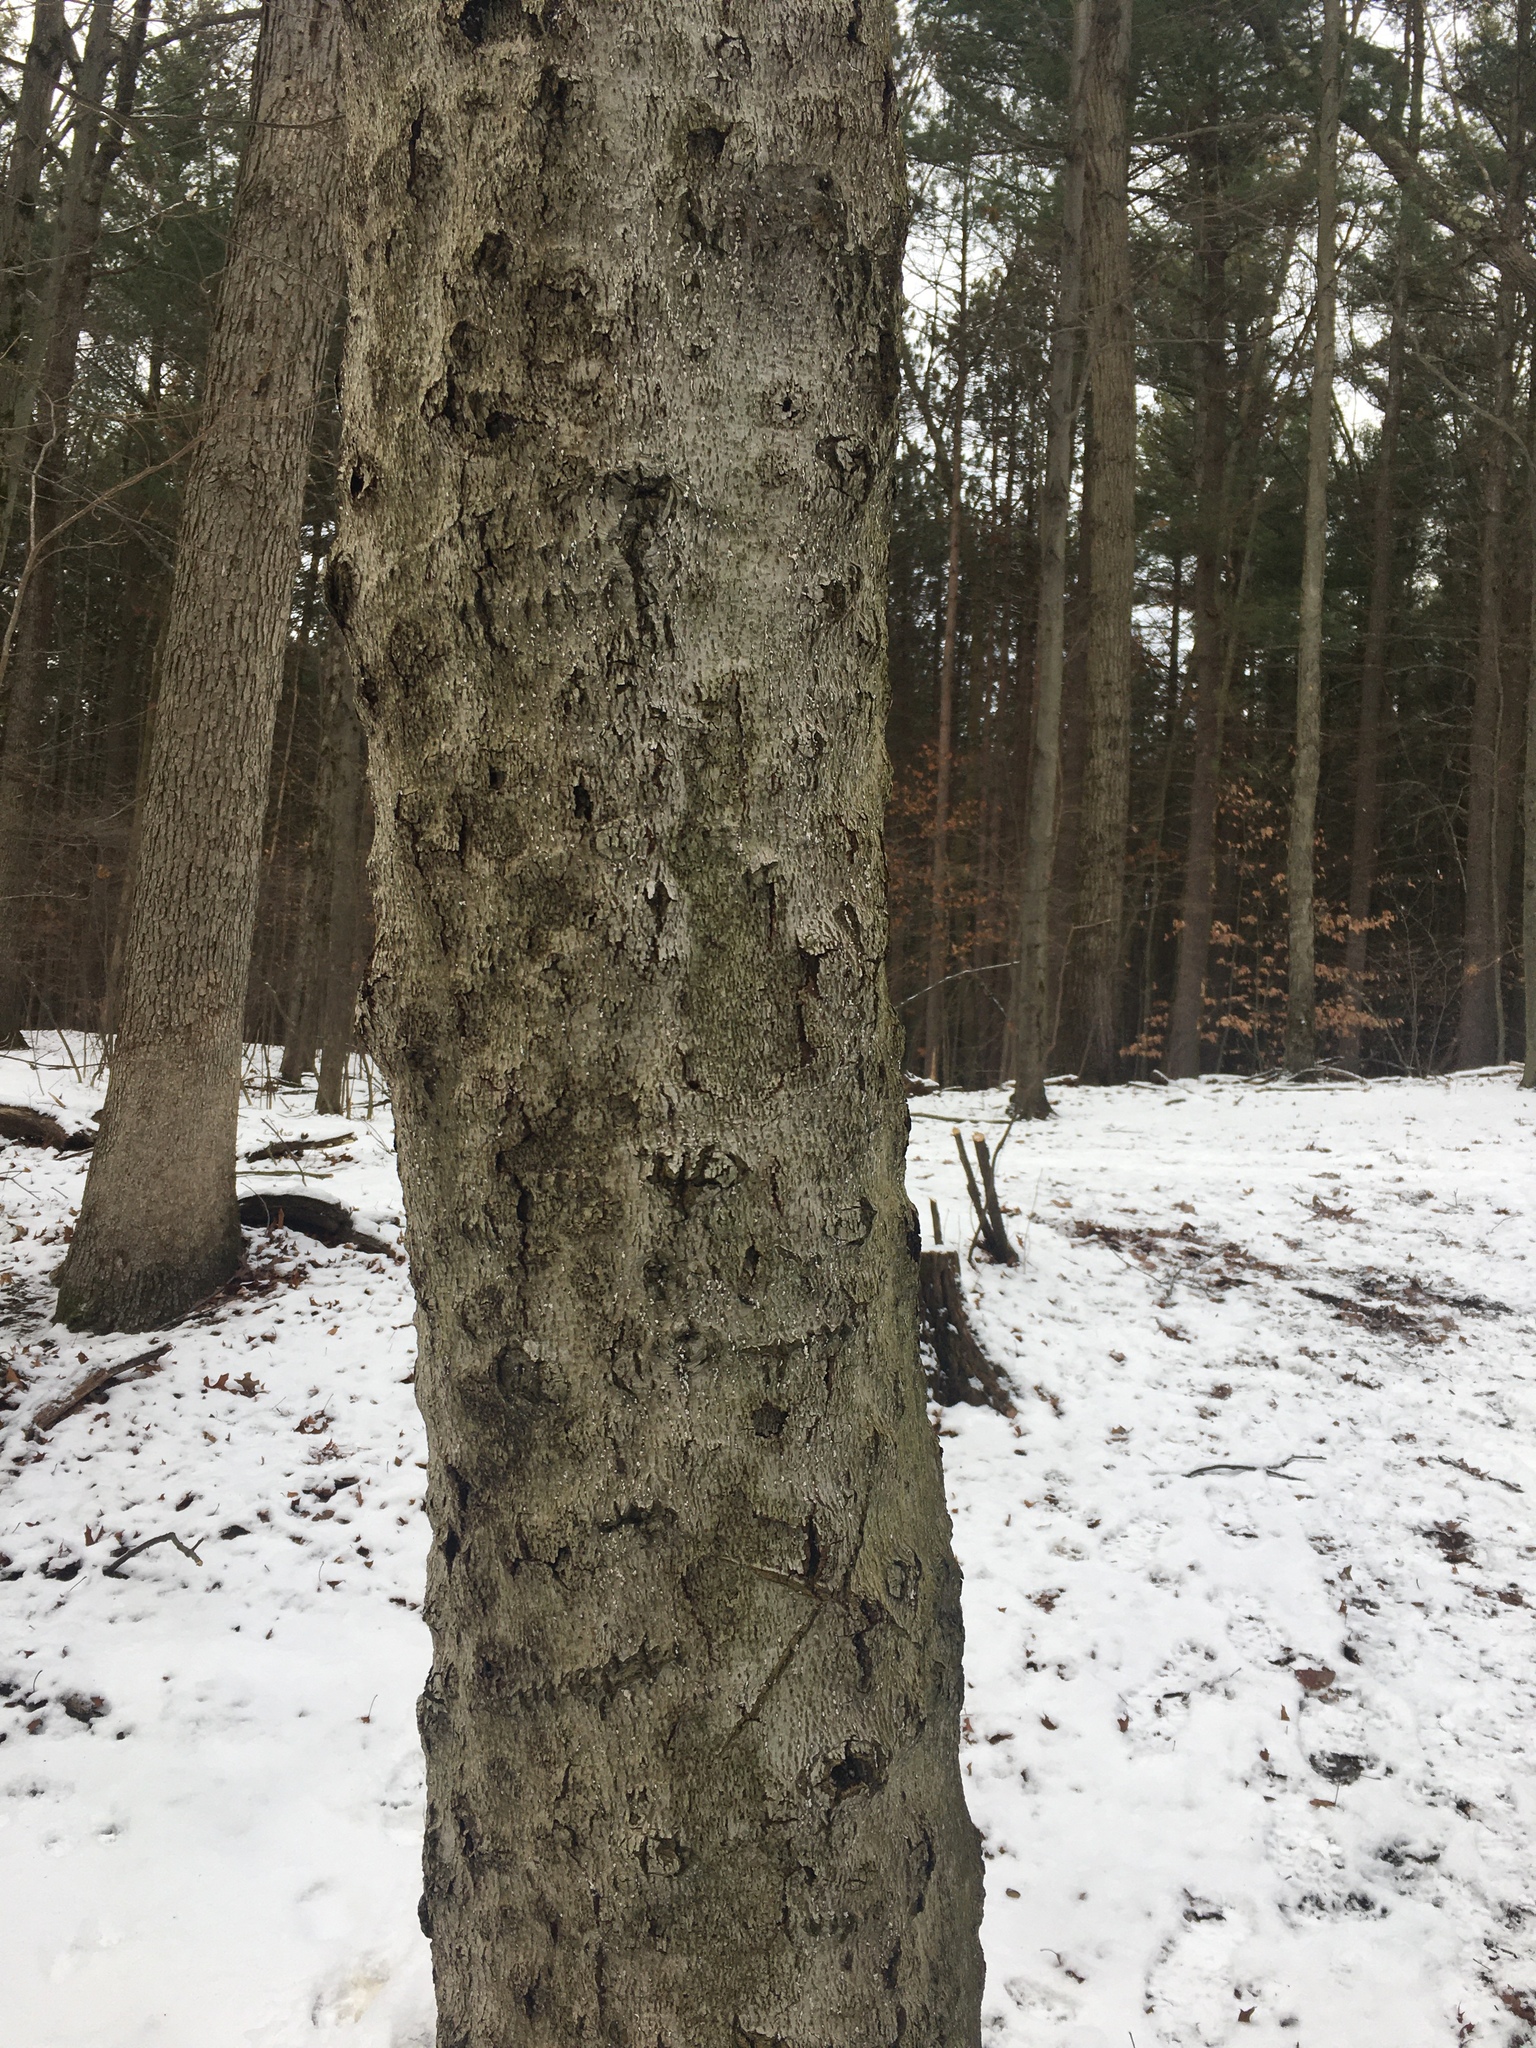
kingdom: Animalia
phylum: Arthropoda
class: Insecta
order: Hemiptera
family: Eriococcidae
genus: Cryptococcus
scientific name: Cryptococcus fagisuga
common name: Beech scale
